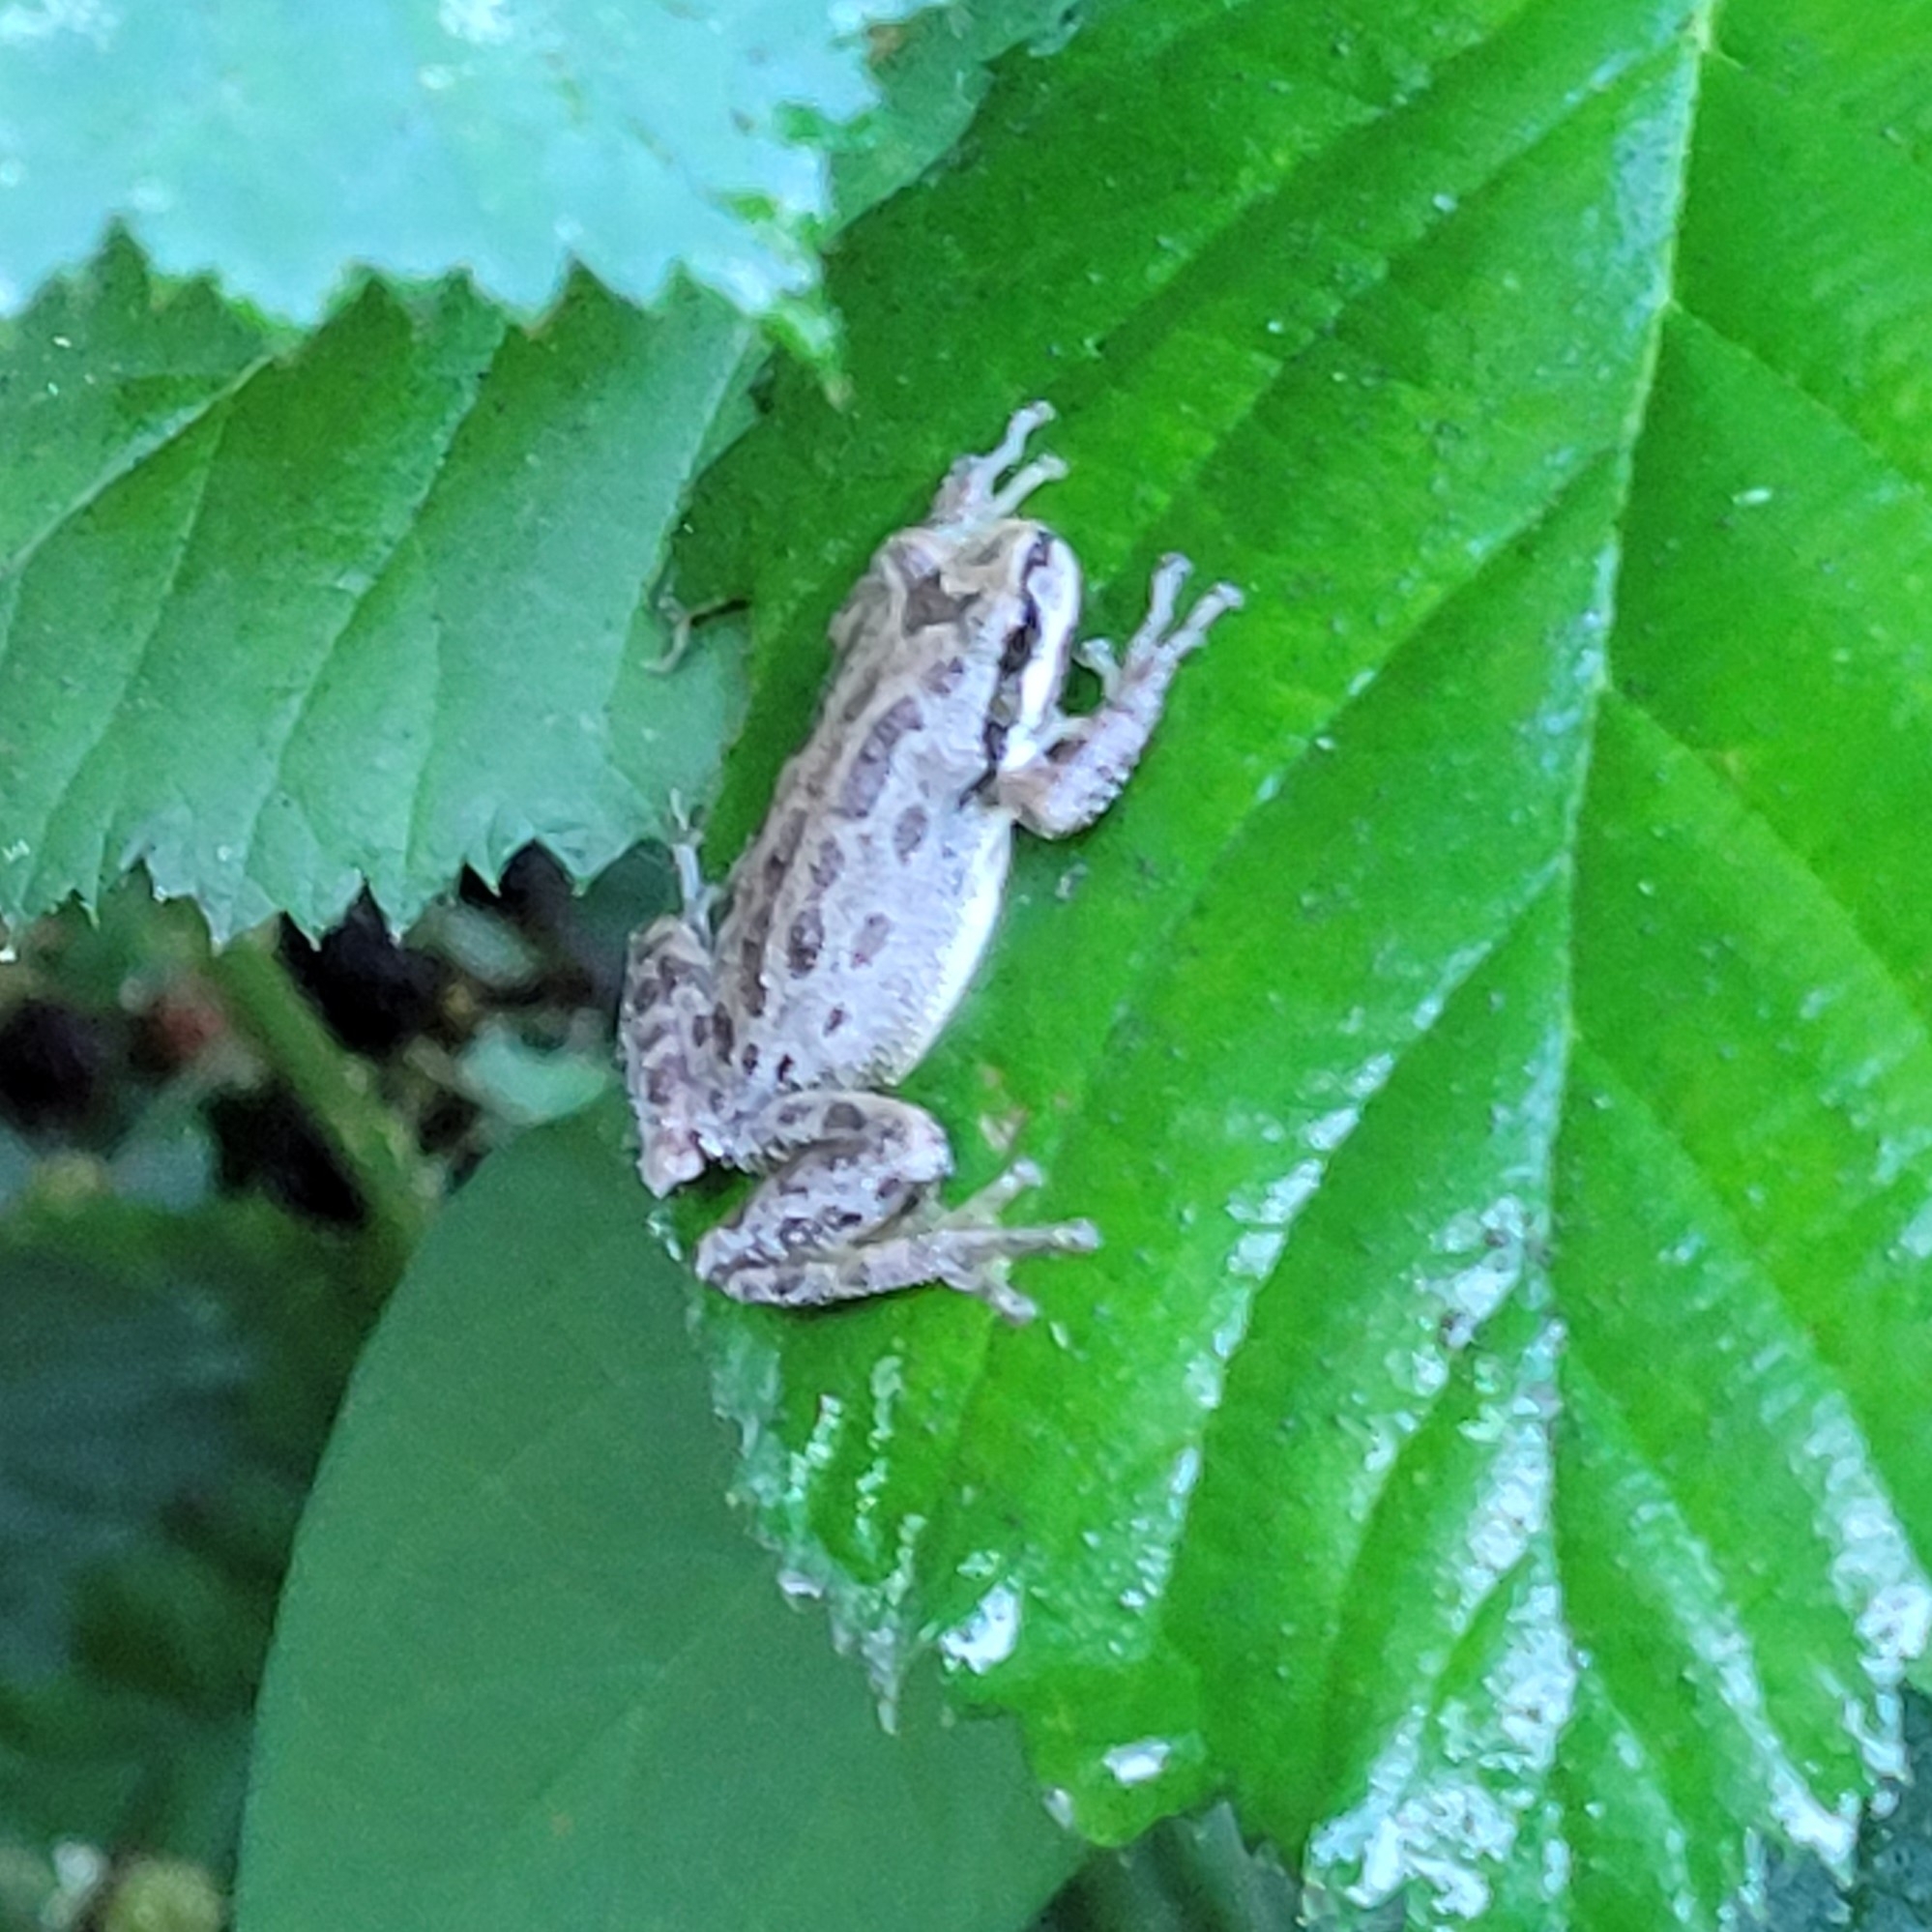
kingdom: Animalia
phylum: Chordata
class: Amphibia
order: Anura
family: Hylidae
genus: Pseudacris
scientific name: Pseudacris regilla
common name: Pacific chorus frog
